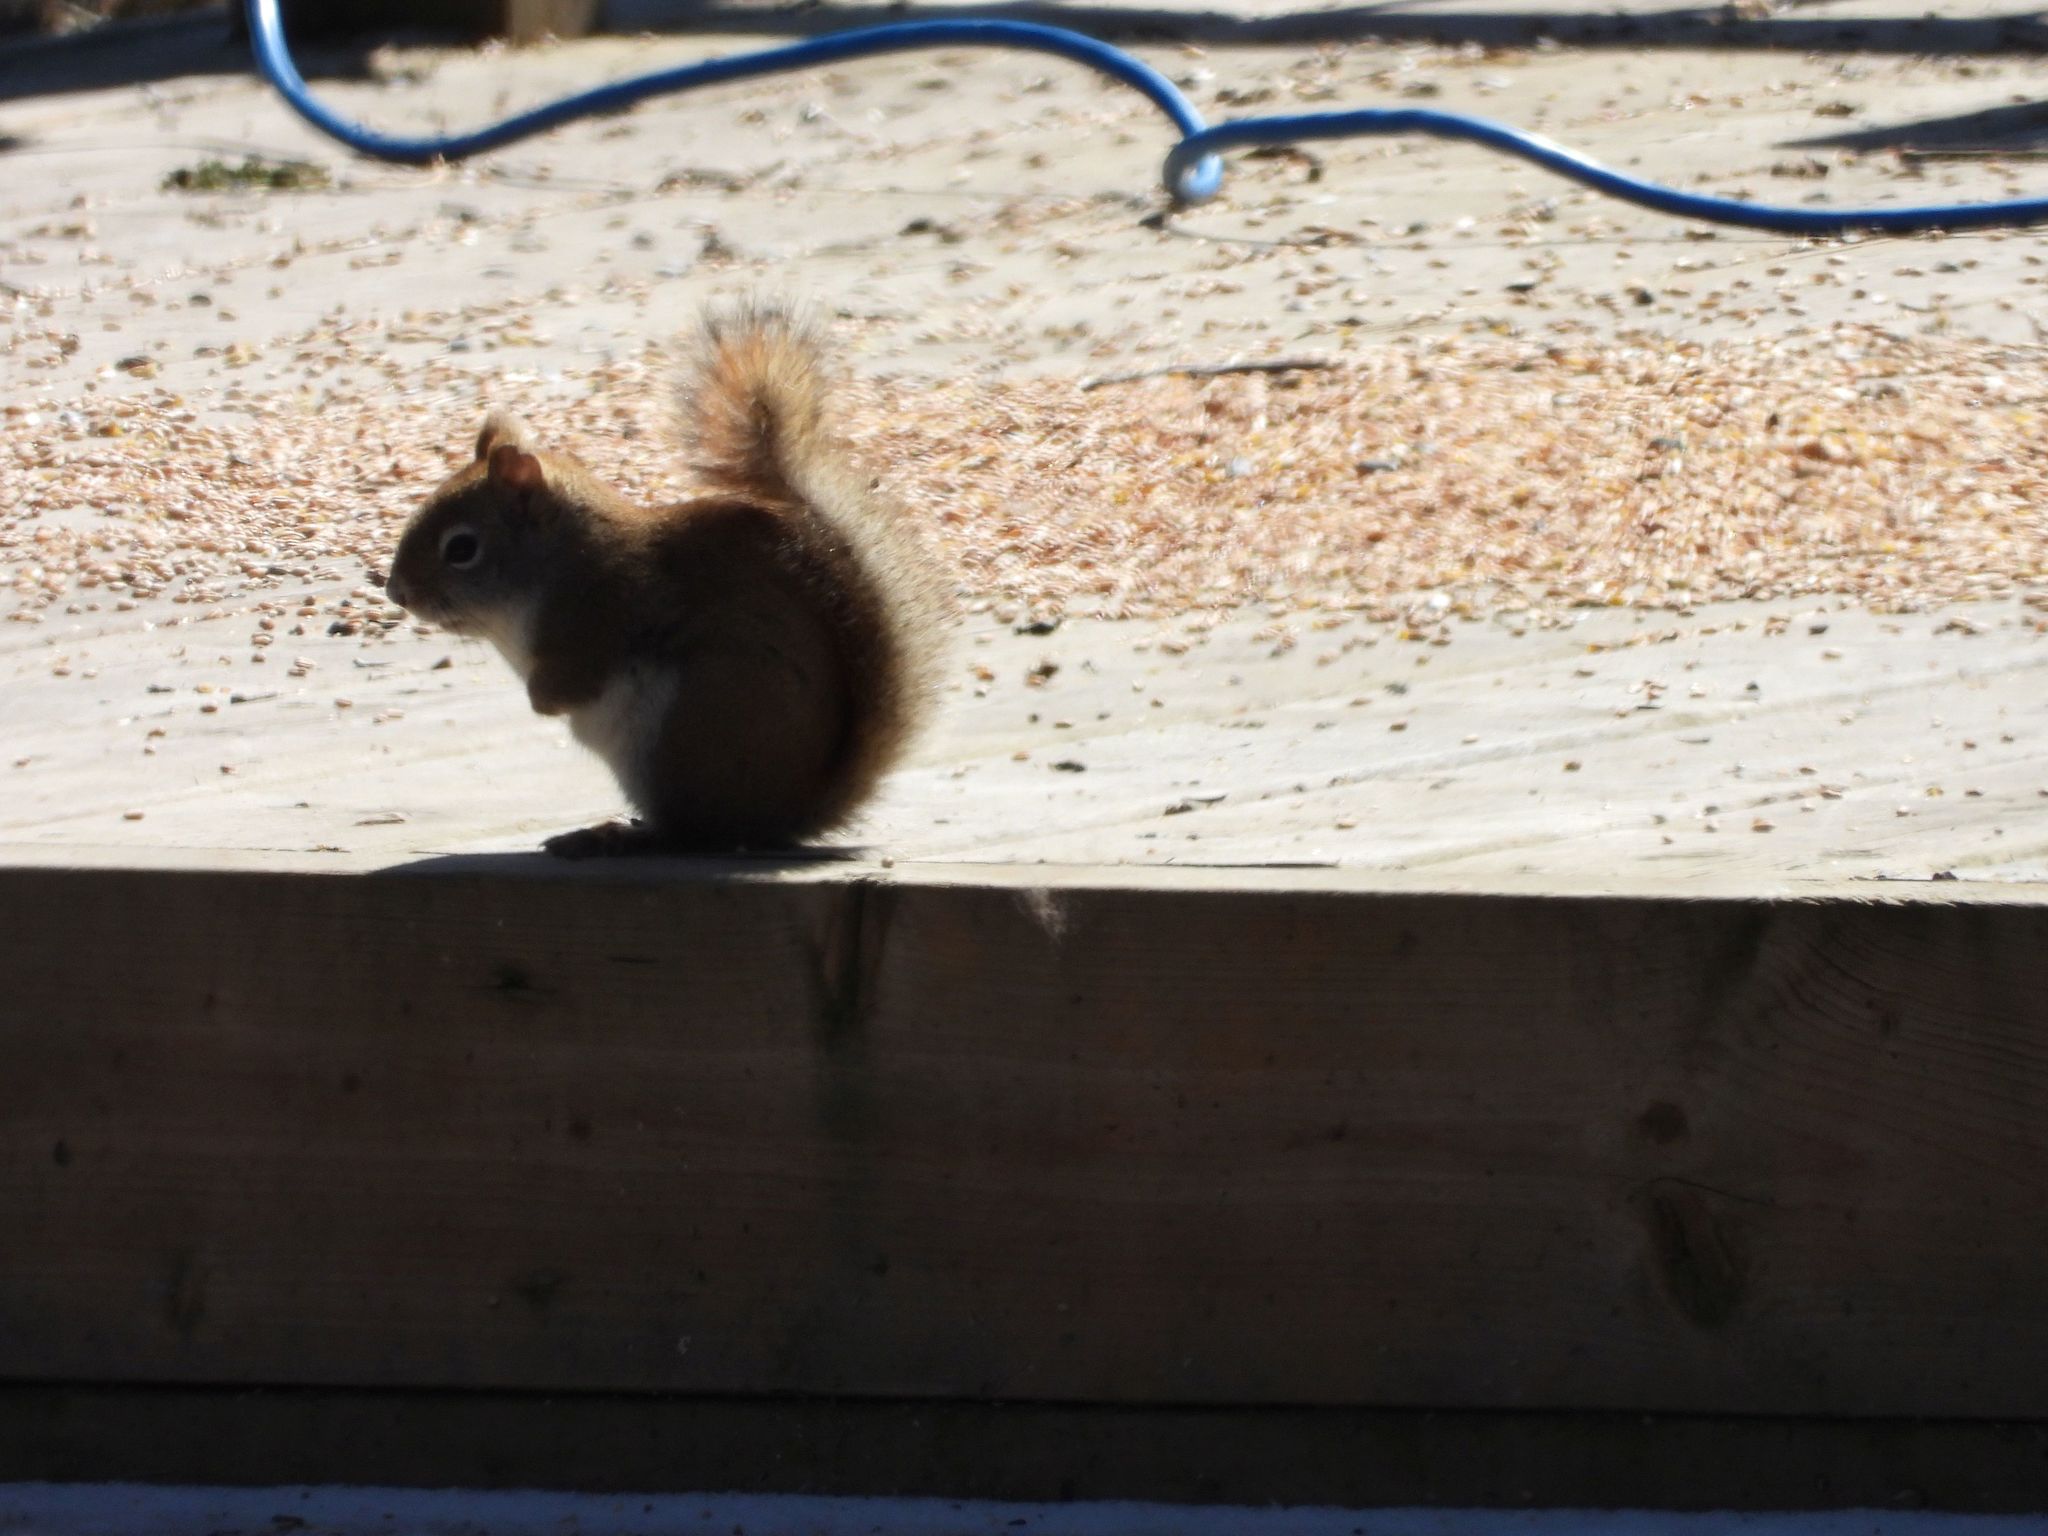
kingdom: Animalia
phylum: Chordata
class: Mammalia
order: Rodentia
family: Sciuridae
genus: Tamiasciurus
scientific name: Tamiasciurus hudsonicus
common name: Red squirrel
